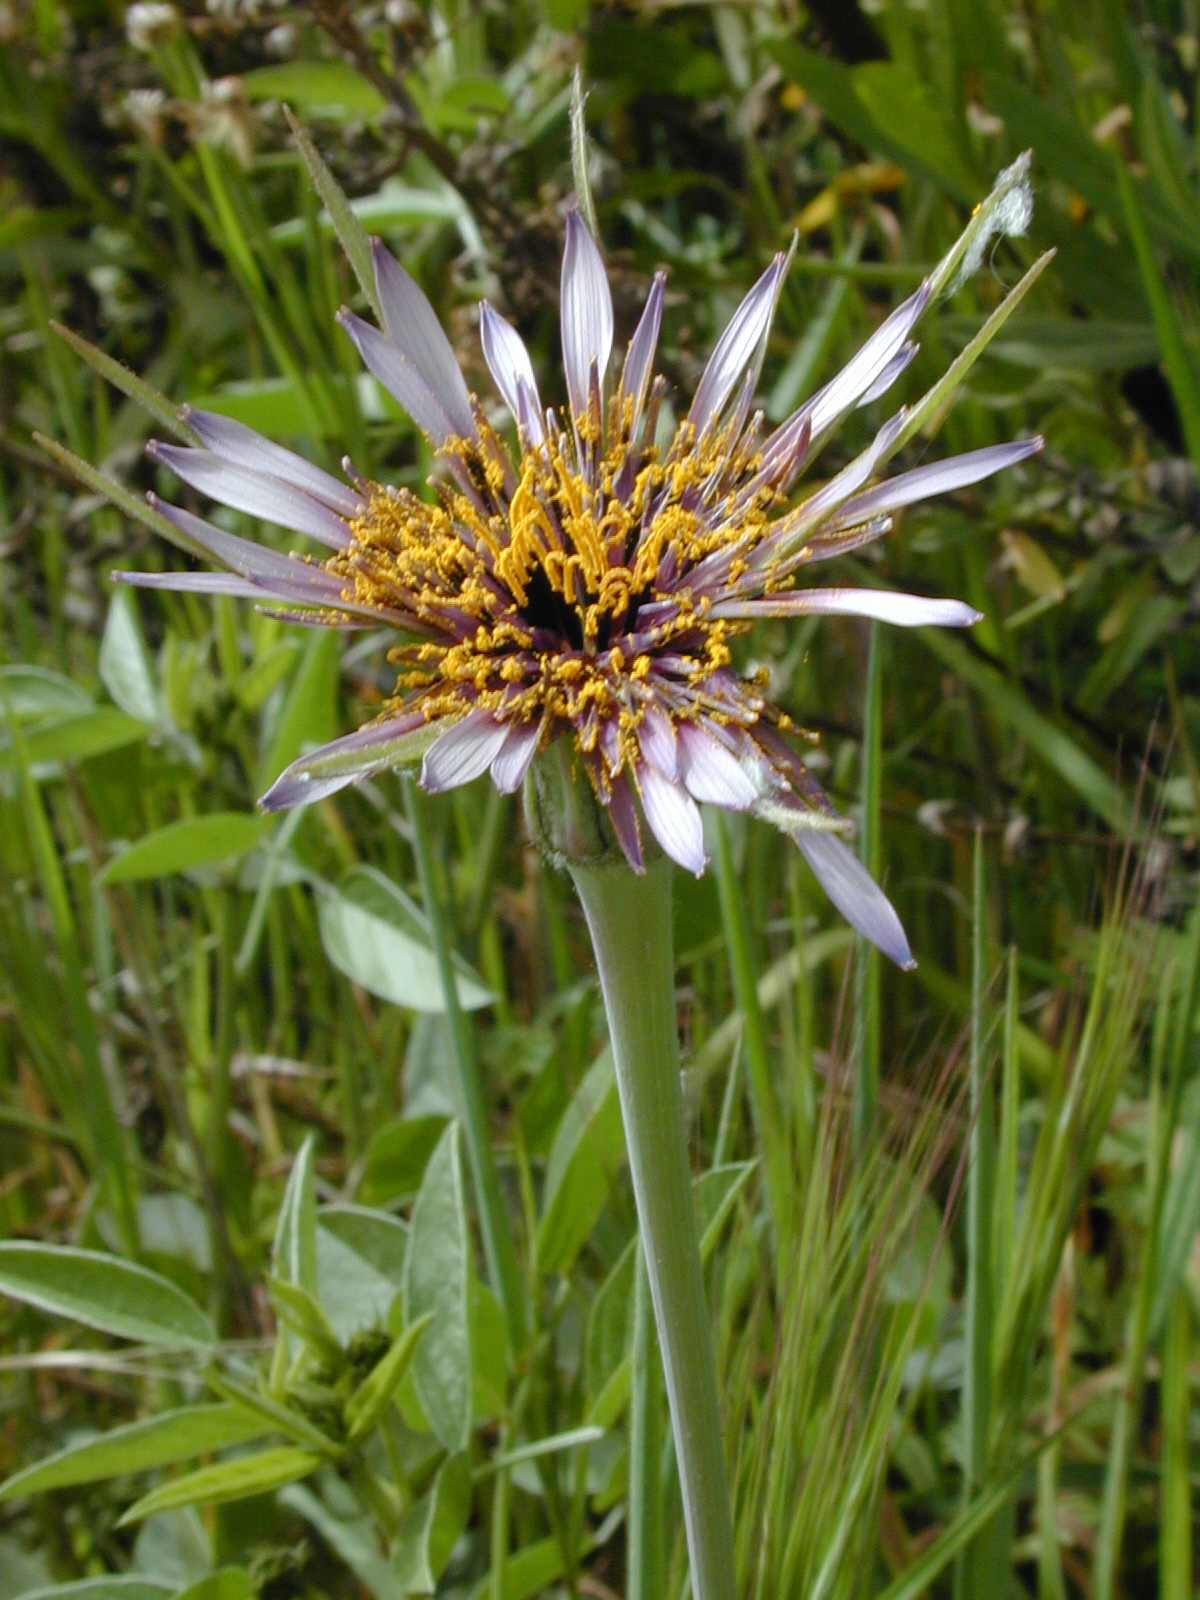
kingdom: Plantae
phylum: Tracheophyta
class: Magnoliopsida
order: Asterales
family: Asteraceae
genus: Tragopogon
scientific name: Tragopogon porrifolius
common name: Salsify
